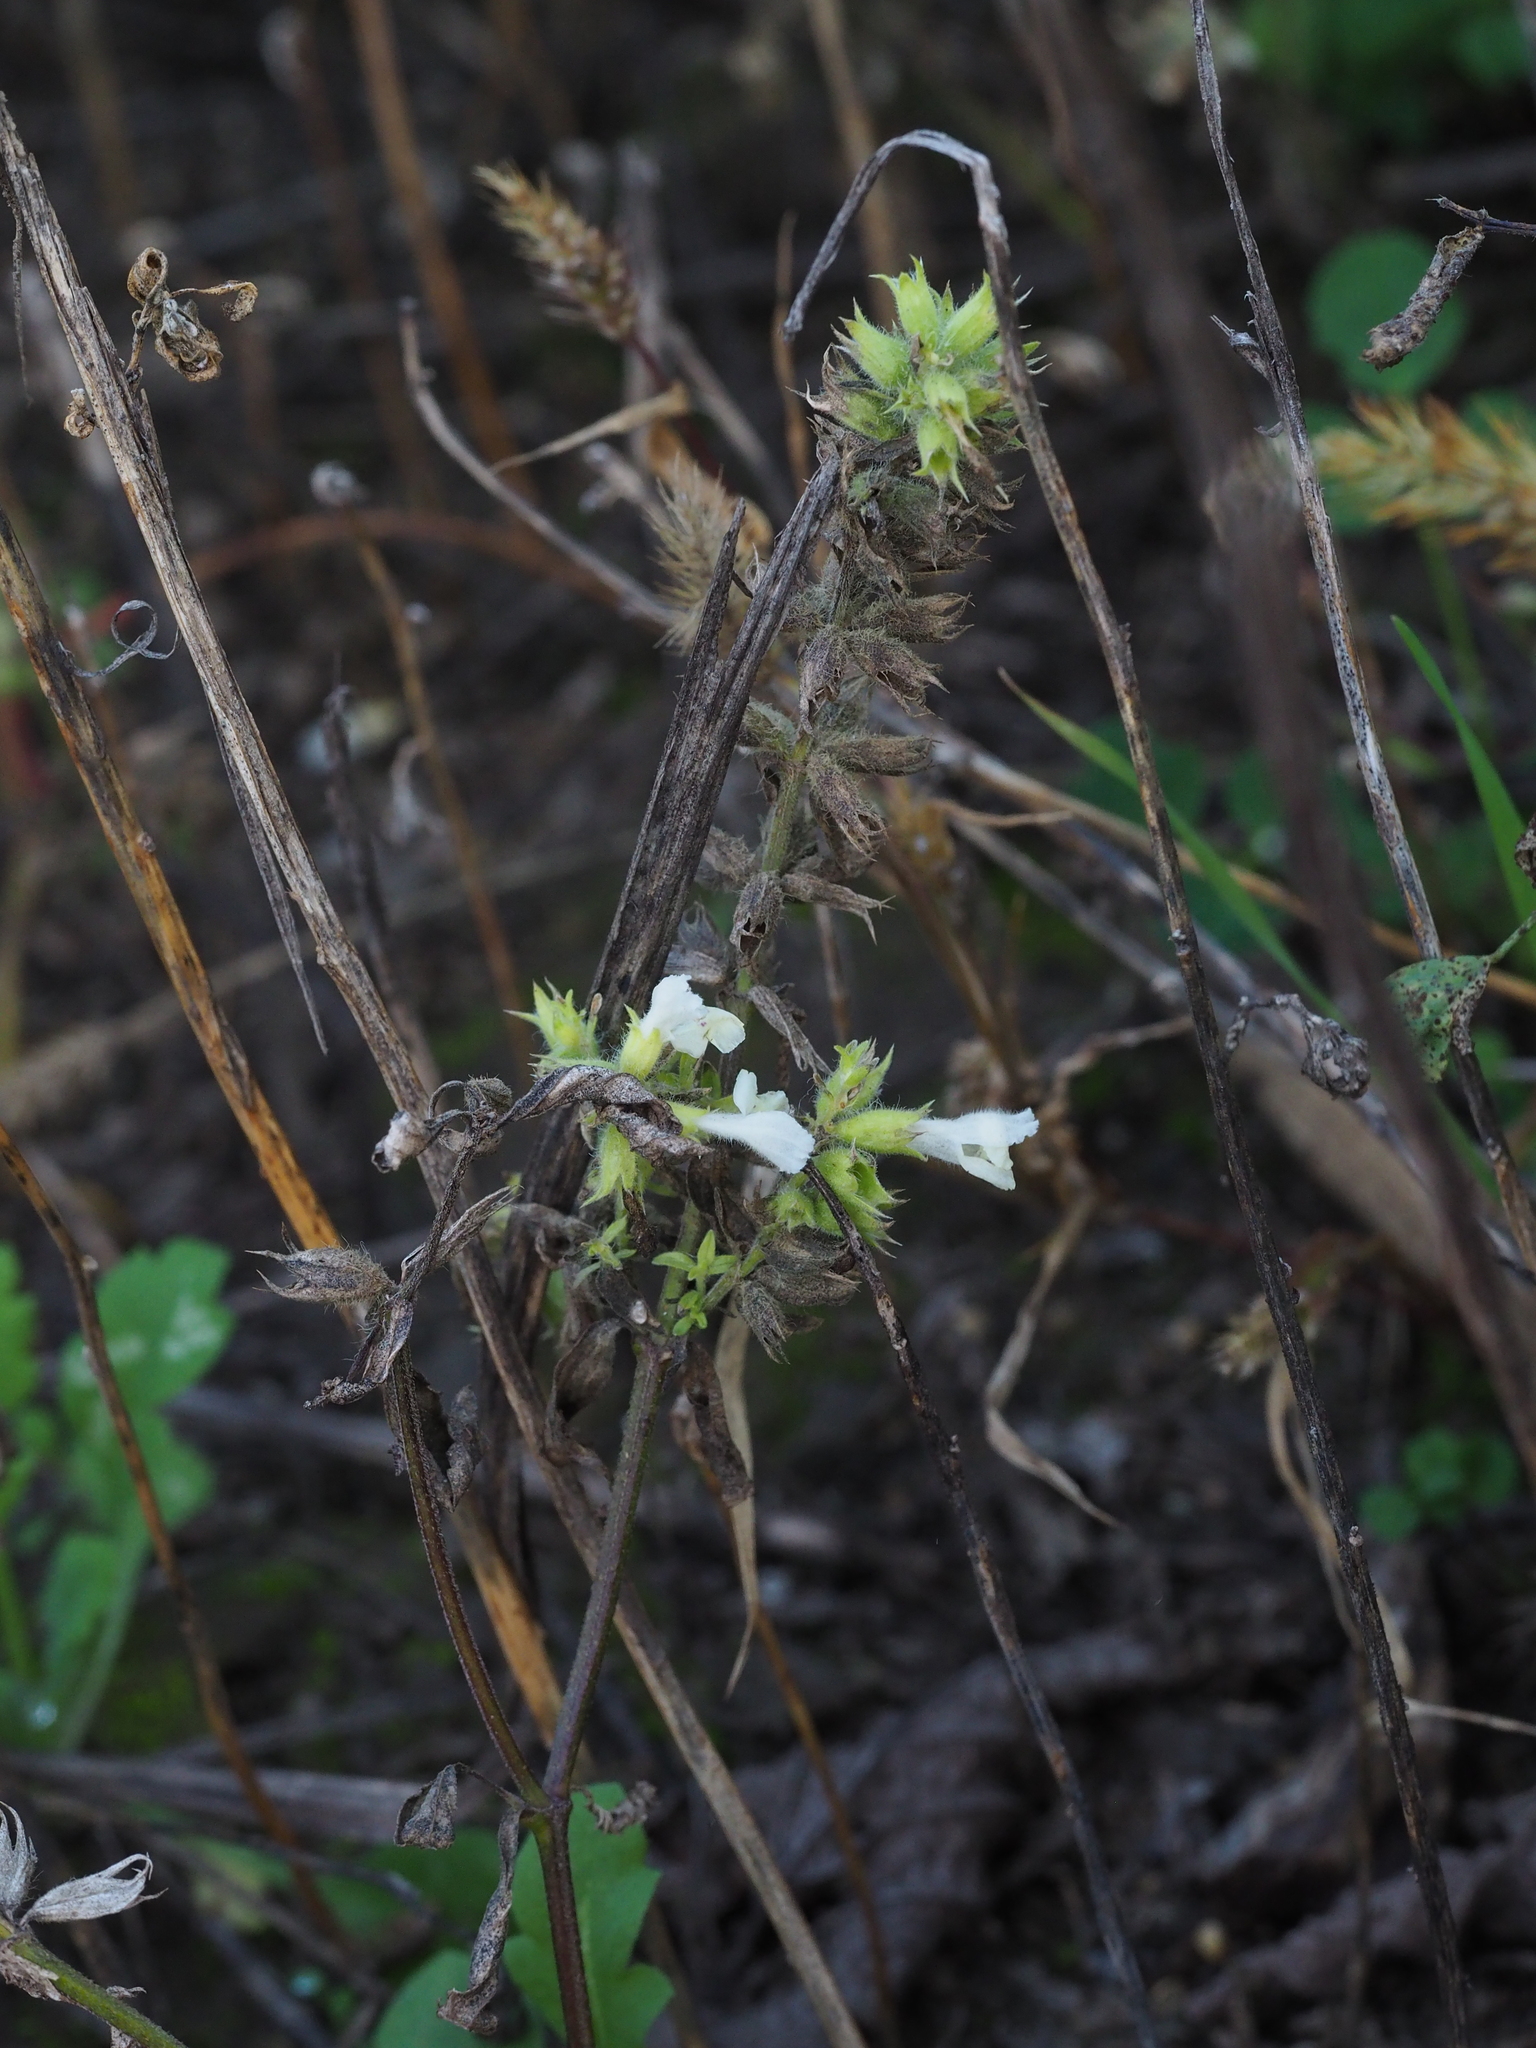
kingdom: Plantae
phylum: Tracheophyta
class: Magnoliopsida
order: Lamiales
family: Lamiaceae
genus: Stachys
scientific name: Stachys annua
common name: Annual yellow-woundwort
